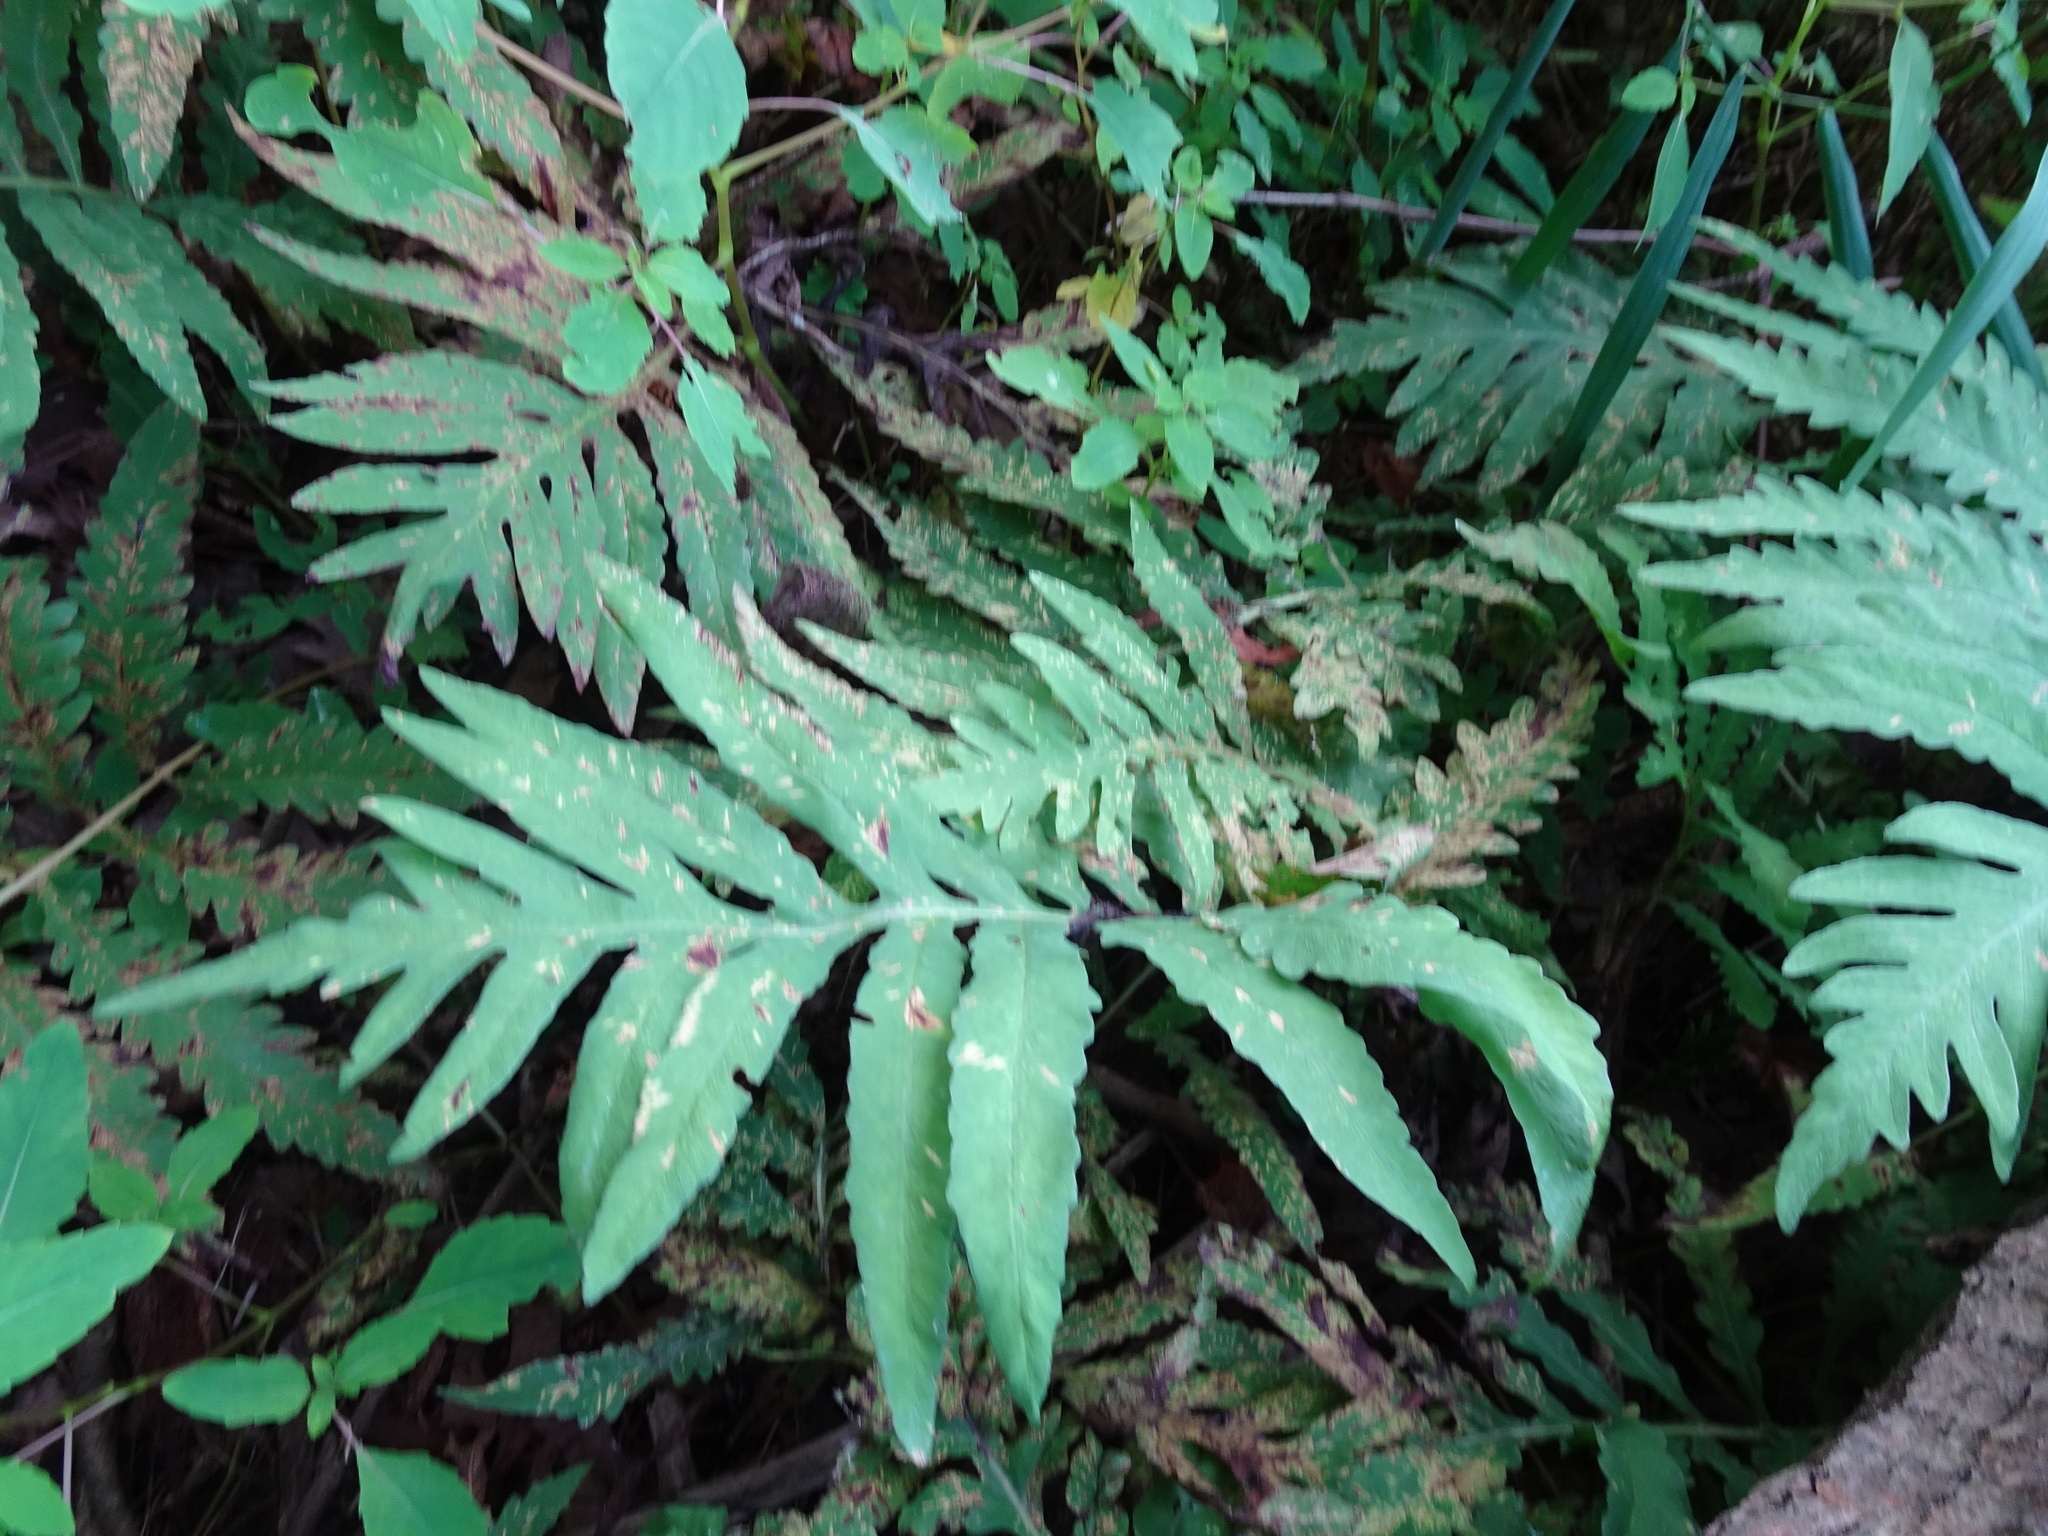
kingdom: Plantae
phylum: Tracheophyta
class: Polypodiopsida
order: Polypodiales
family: Onocleaceae
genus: Onoclea
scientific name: Onoclea sensibilis
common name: Sensitive fern
